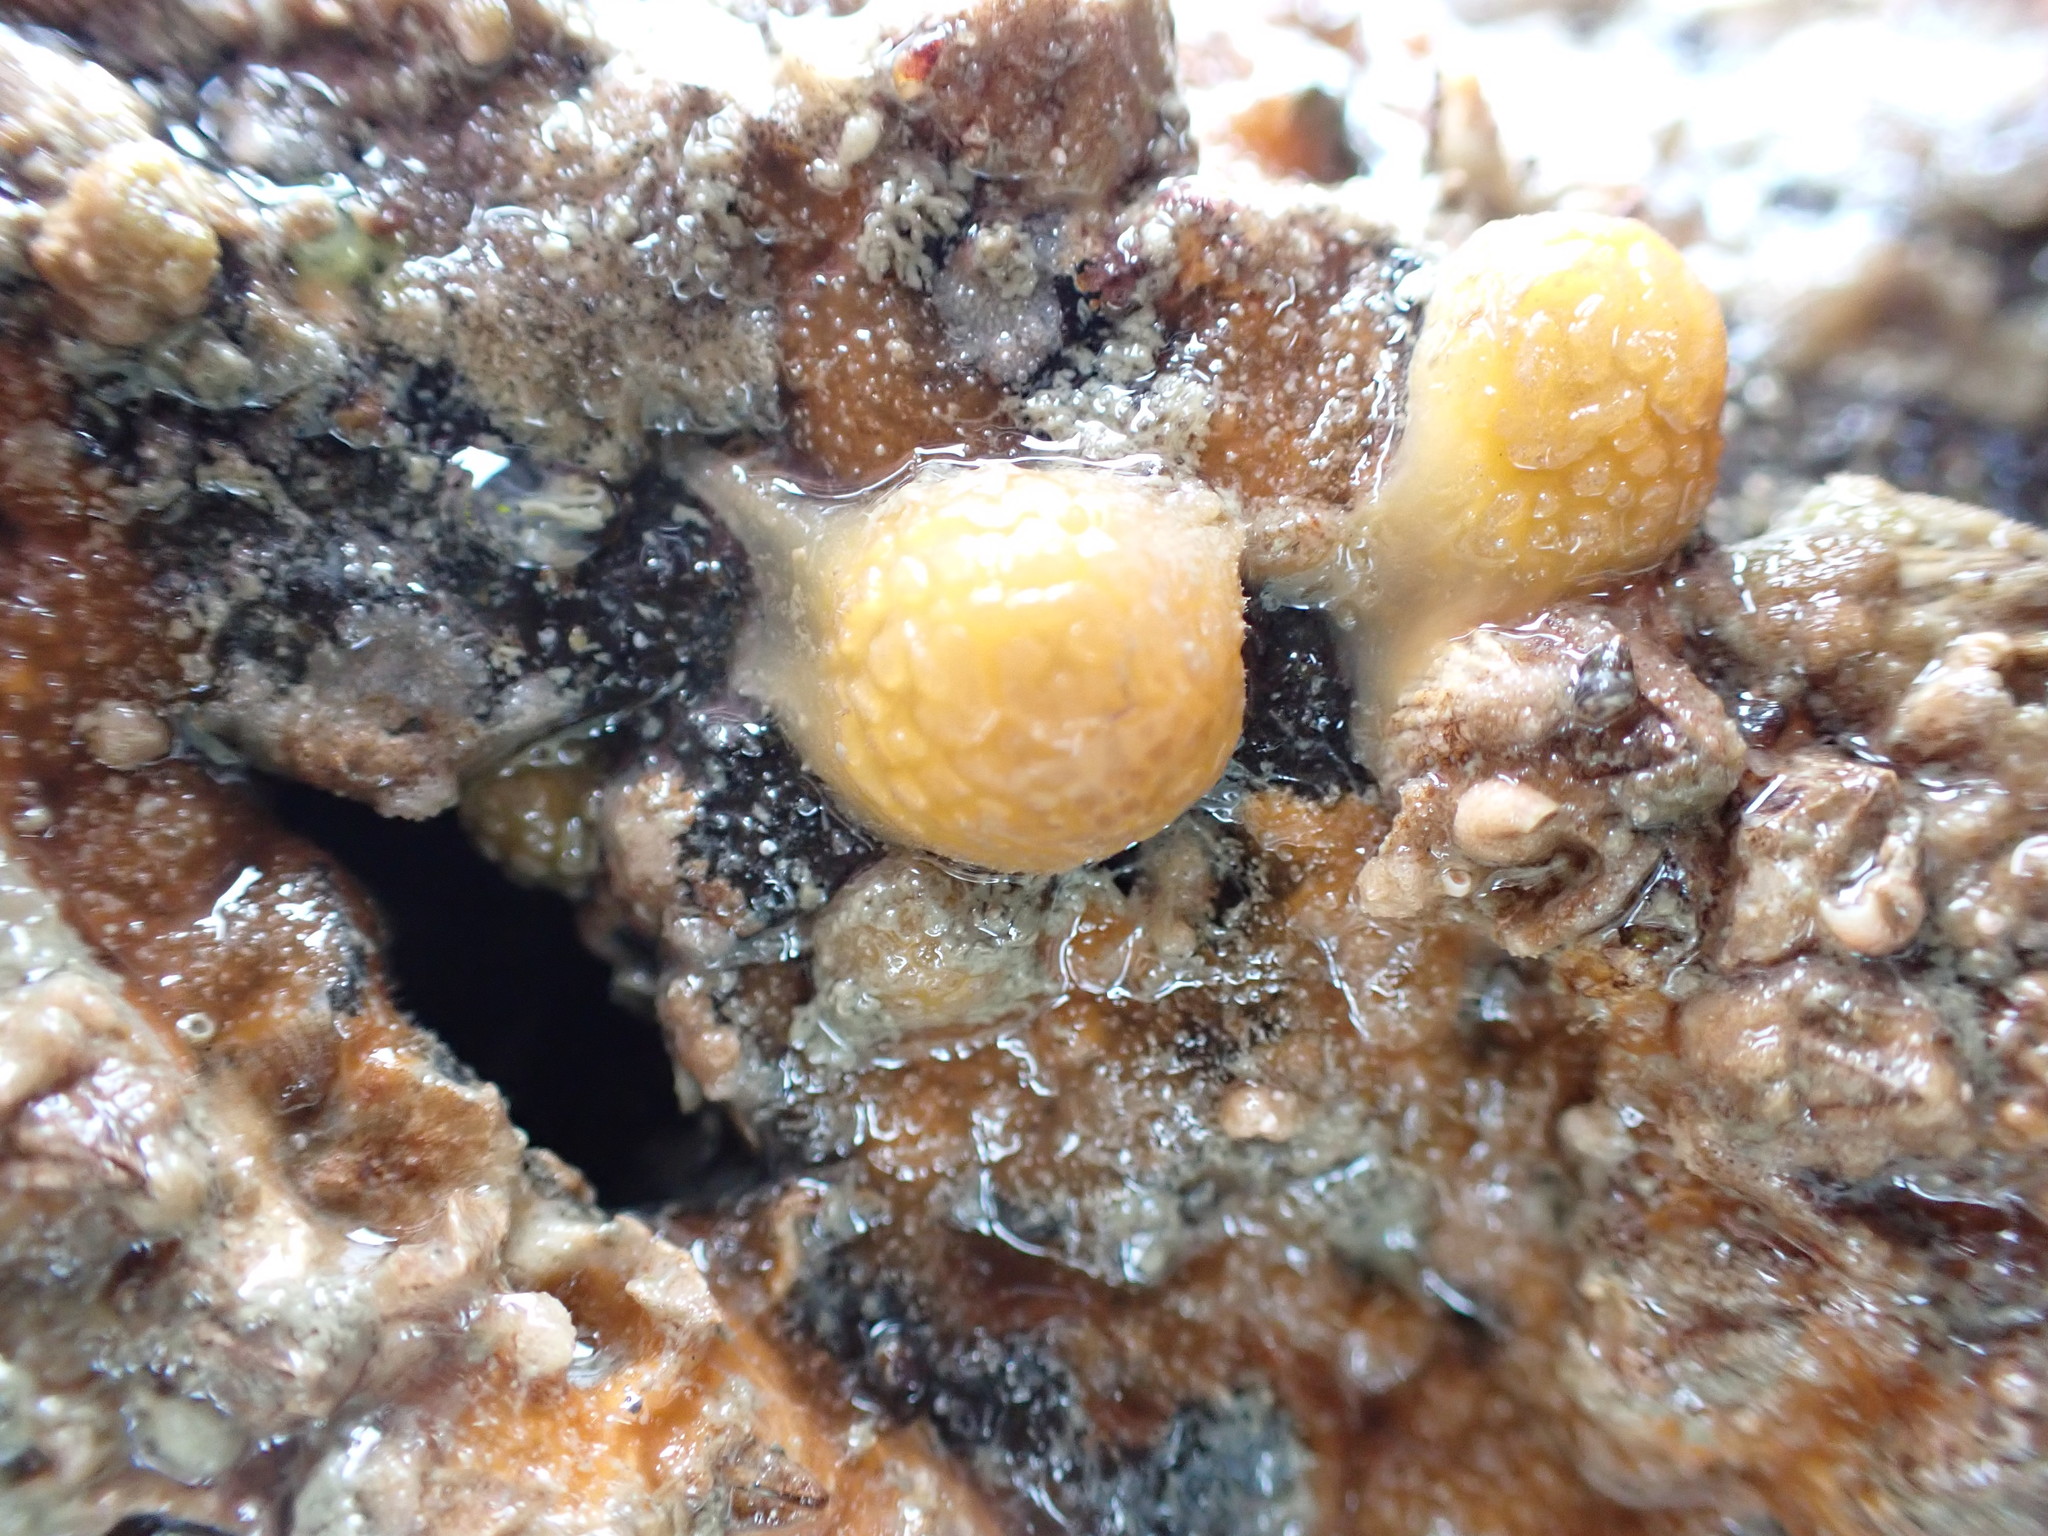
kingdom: Animalia
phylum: Porifera
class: Demospongiae
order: Tethyida
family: Tethyidae
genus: Tethya
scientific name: Tethya stolonifera
